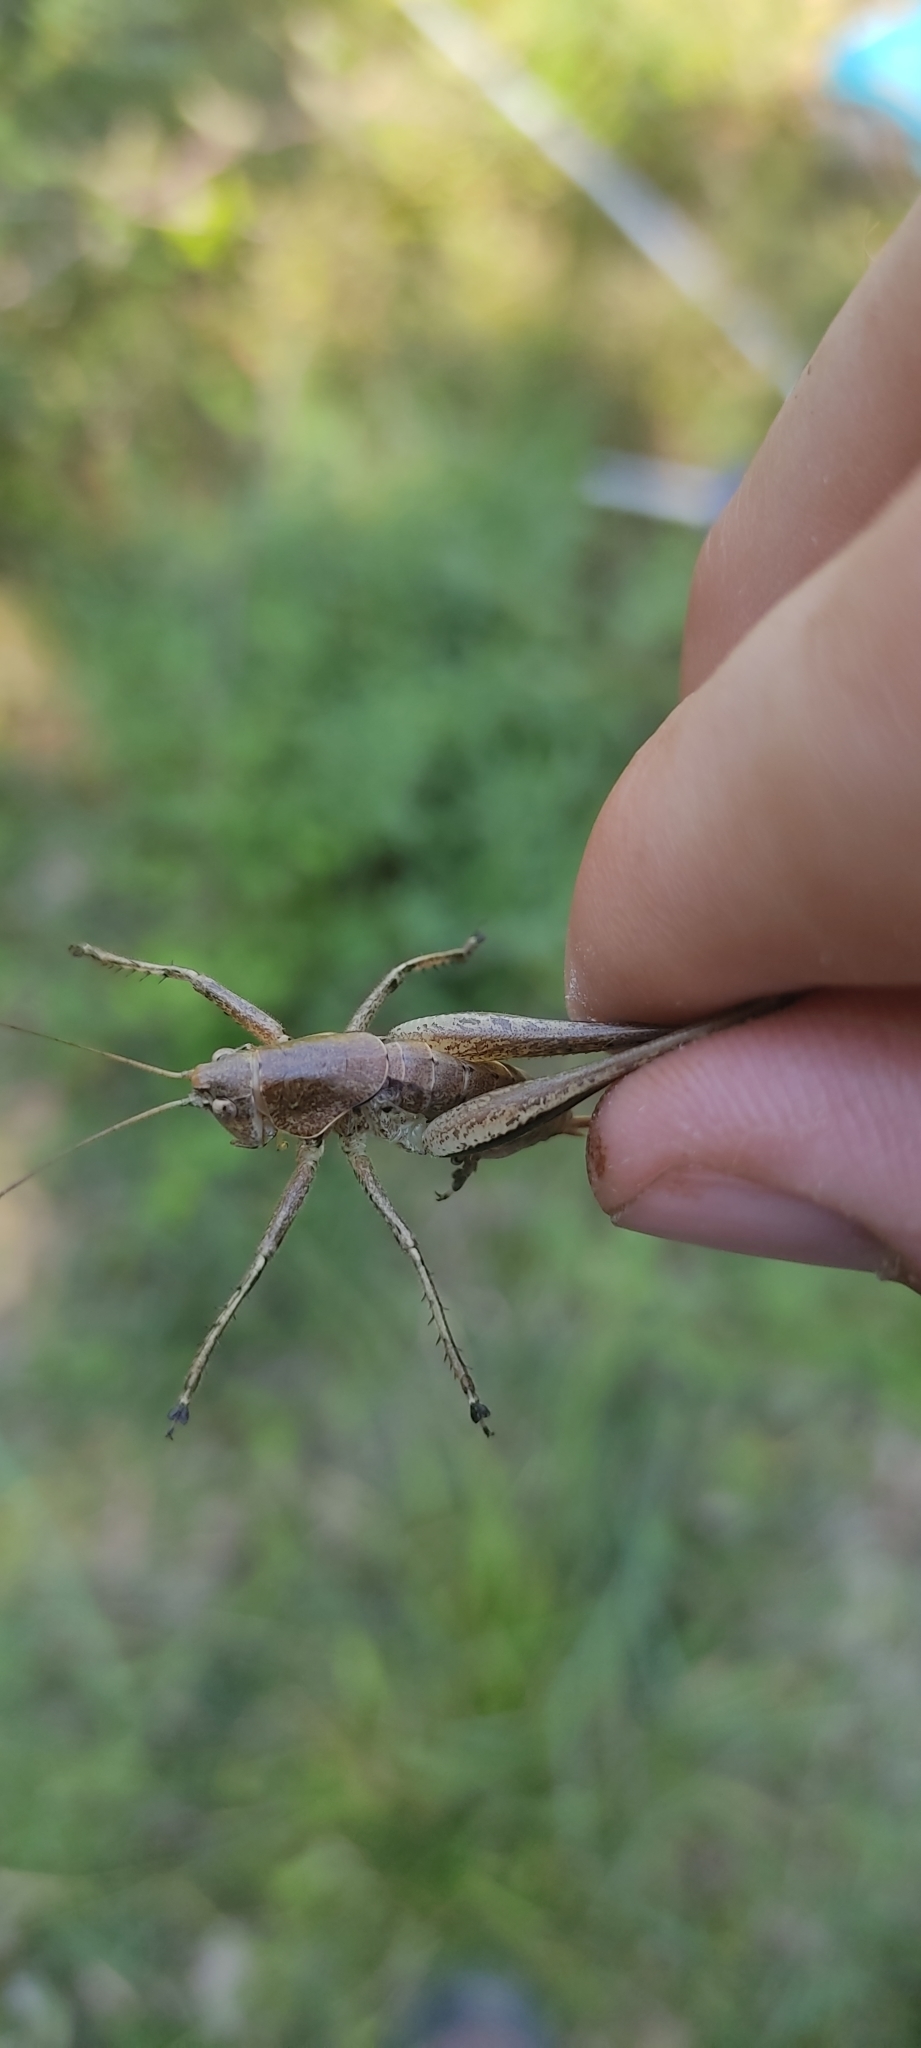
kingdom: Animalia
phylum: Arthropoda
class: Insecta
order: Orthoptera
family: Tettigoniidae
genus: Rhacocleis
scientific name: Rhacocleis poneli
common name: Ponel's bush-cricket
